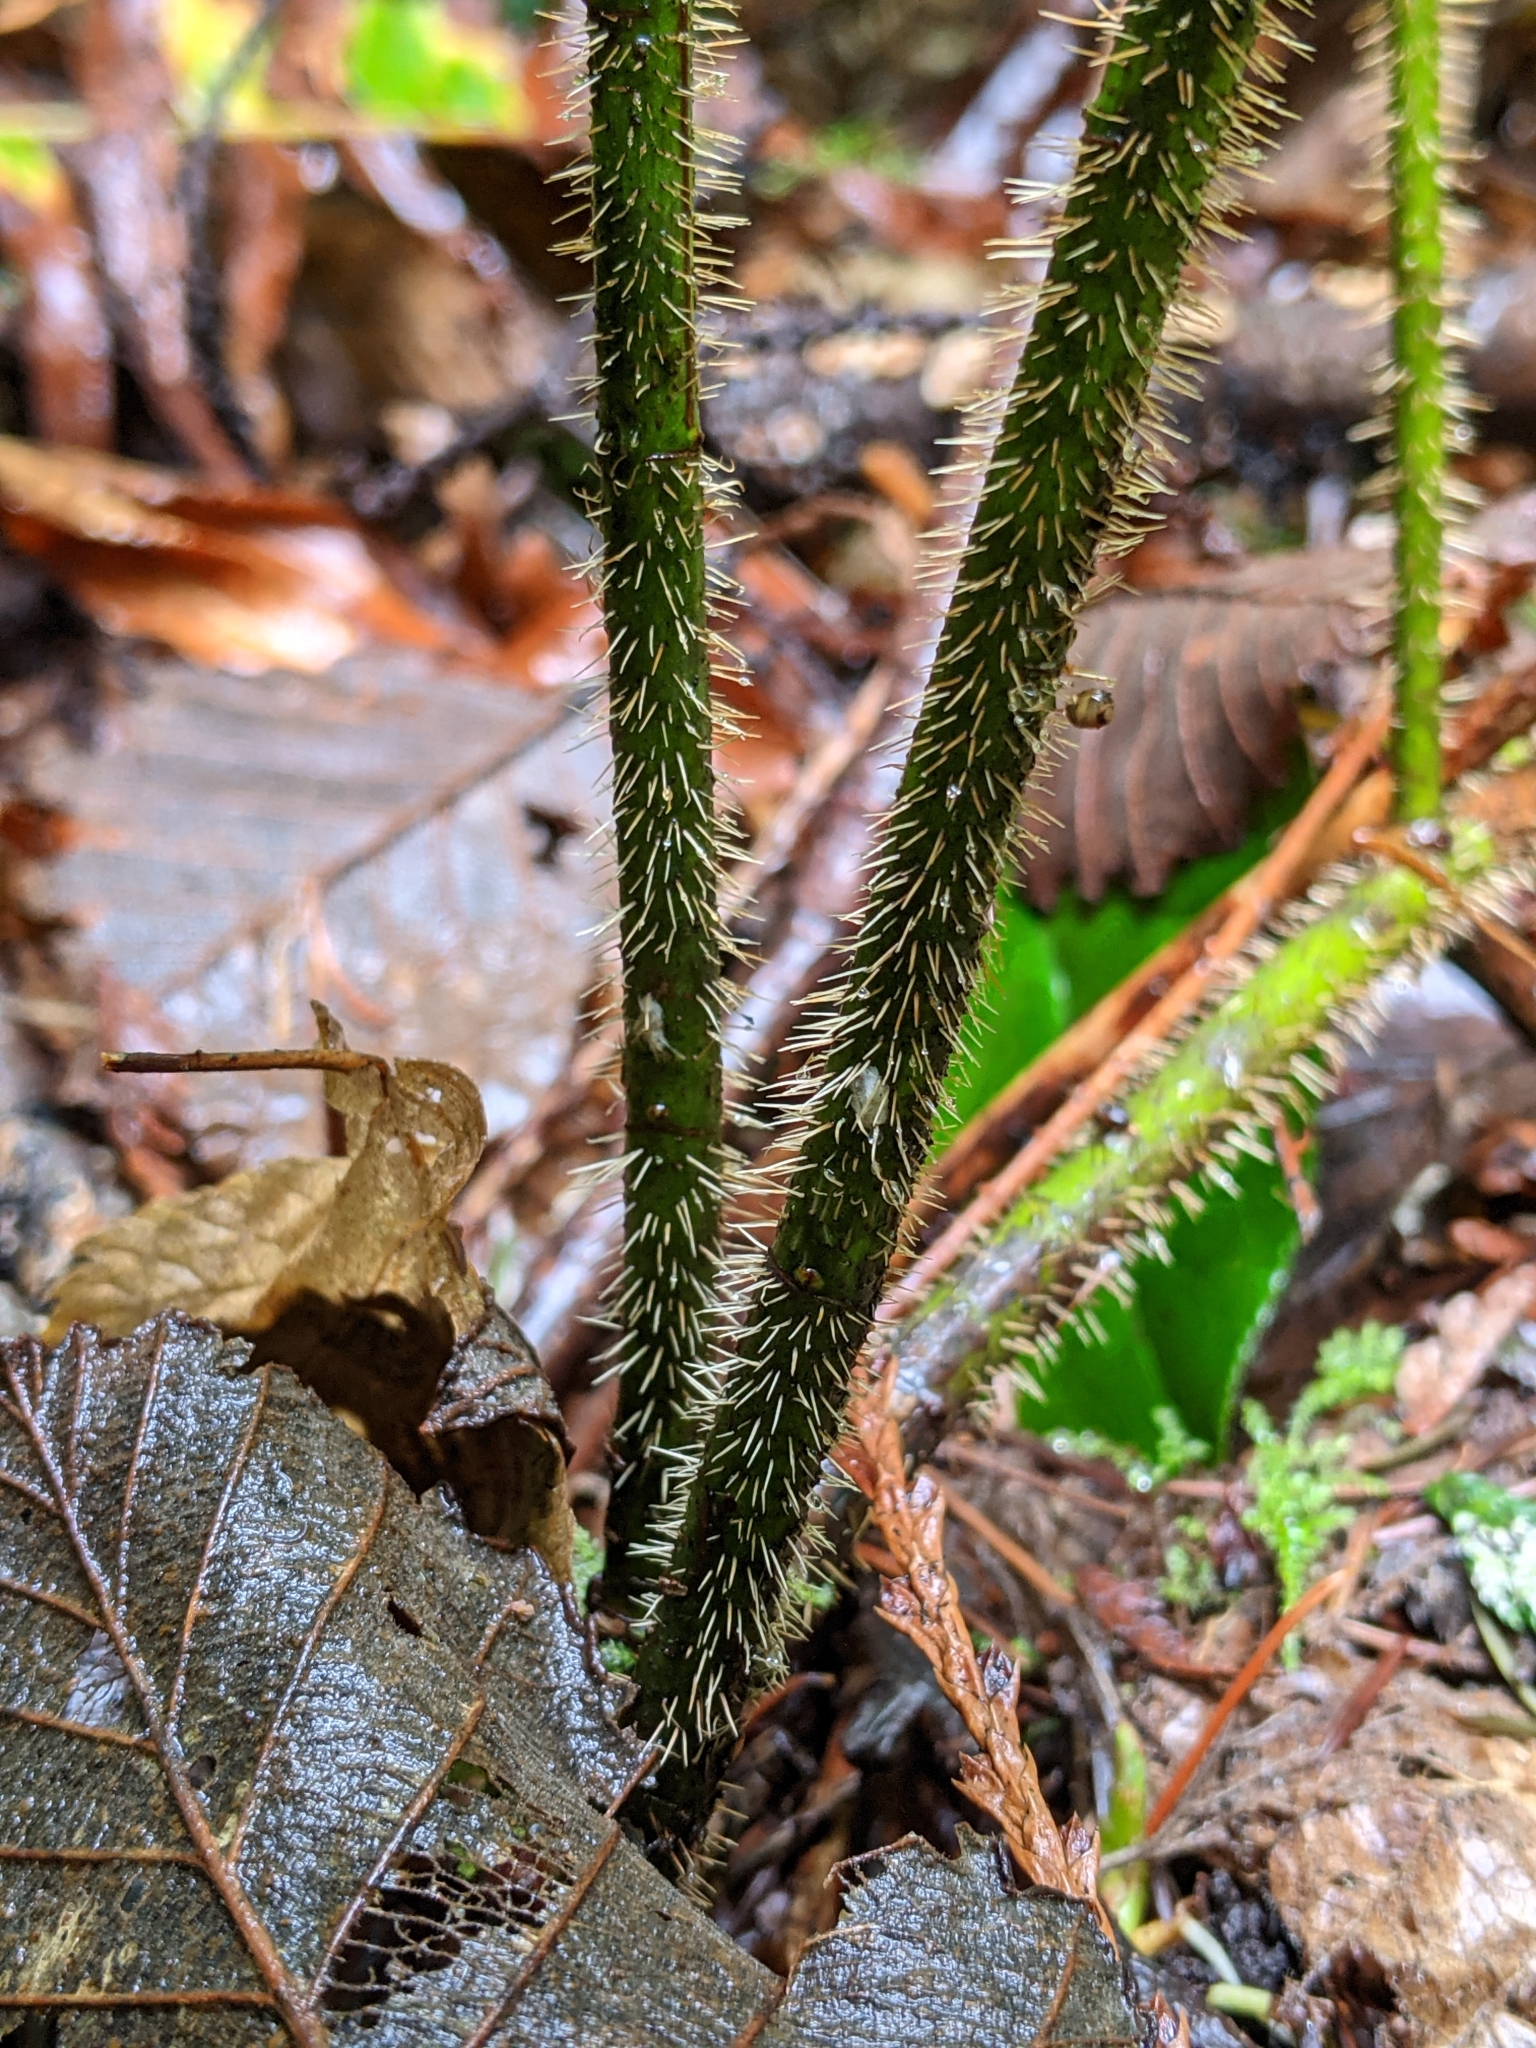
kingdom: Plantae
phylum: Tracheophyta
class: Magnoliopsida
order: Rosales
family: Rosaceae
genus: Rosa
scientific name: Rosa gymnocarpa
